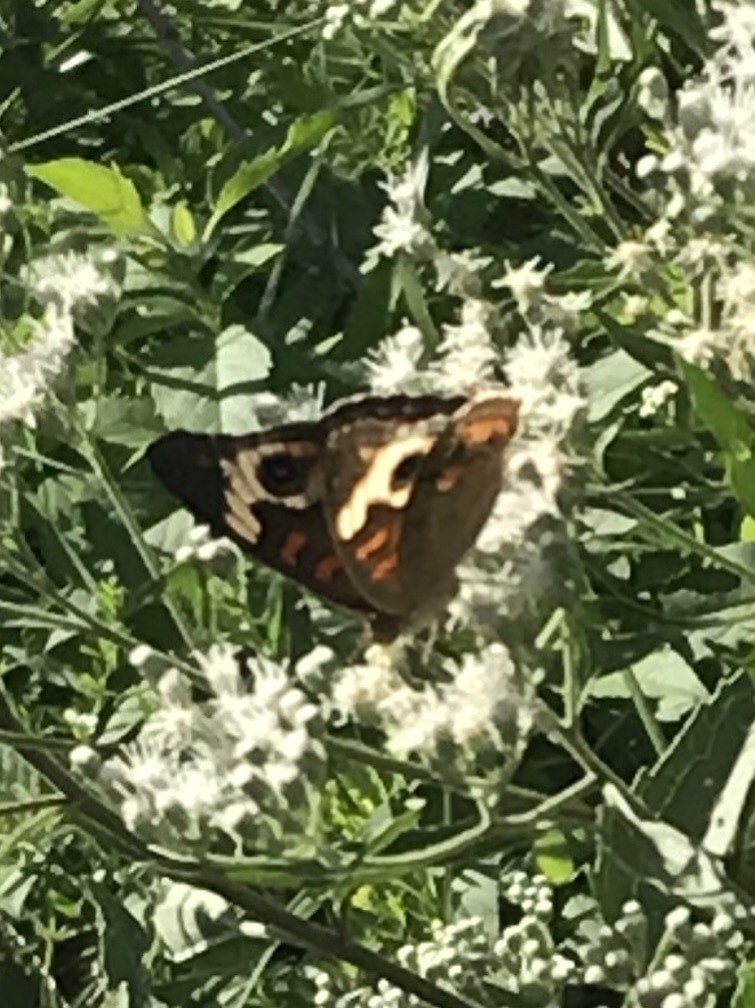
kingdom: Animalia
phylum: Arthropoda
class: Insecta
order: Lepidoptera
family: Nymphalidae
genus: Junonia
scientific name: Junonia coenia
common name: Common buckeye
